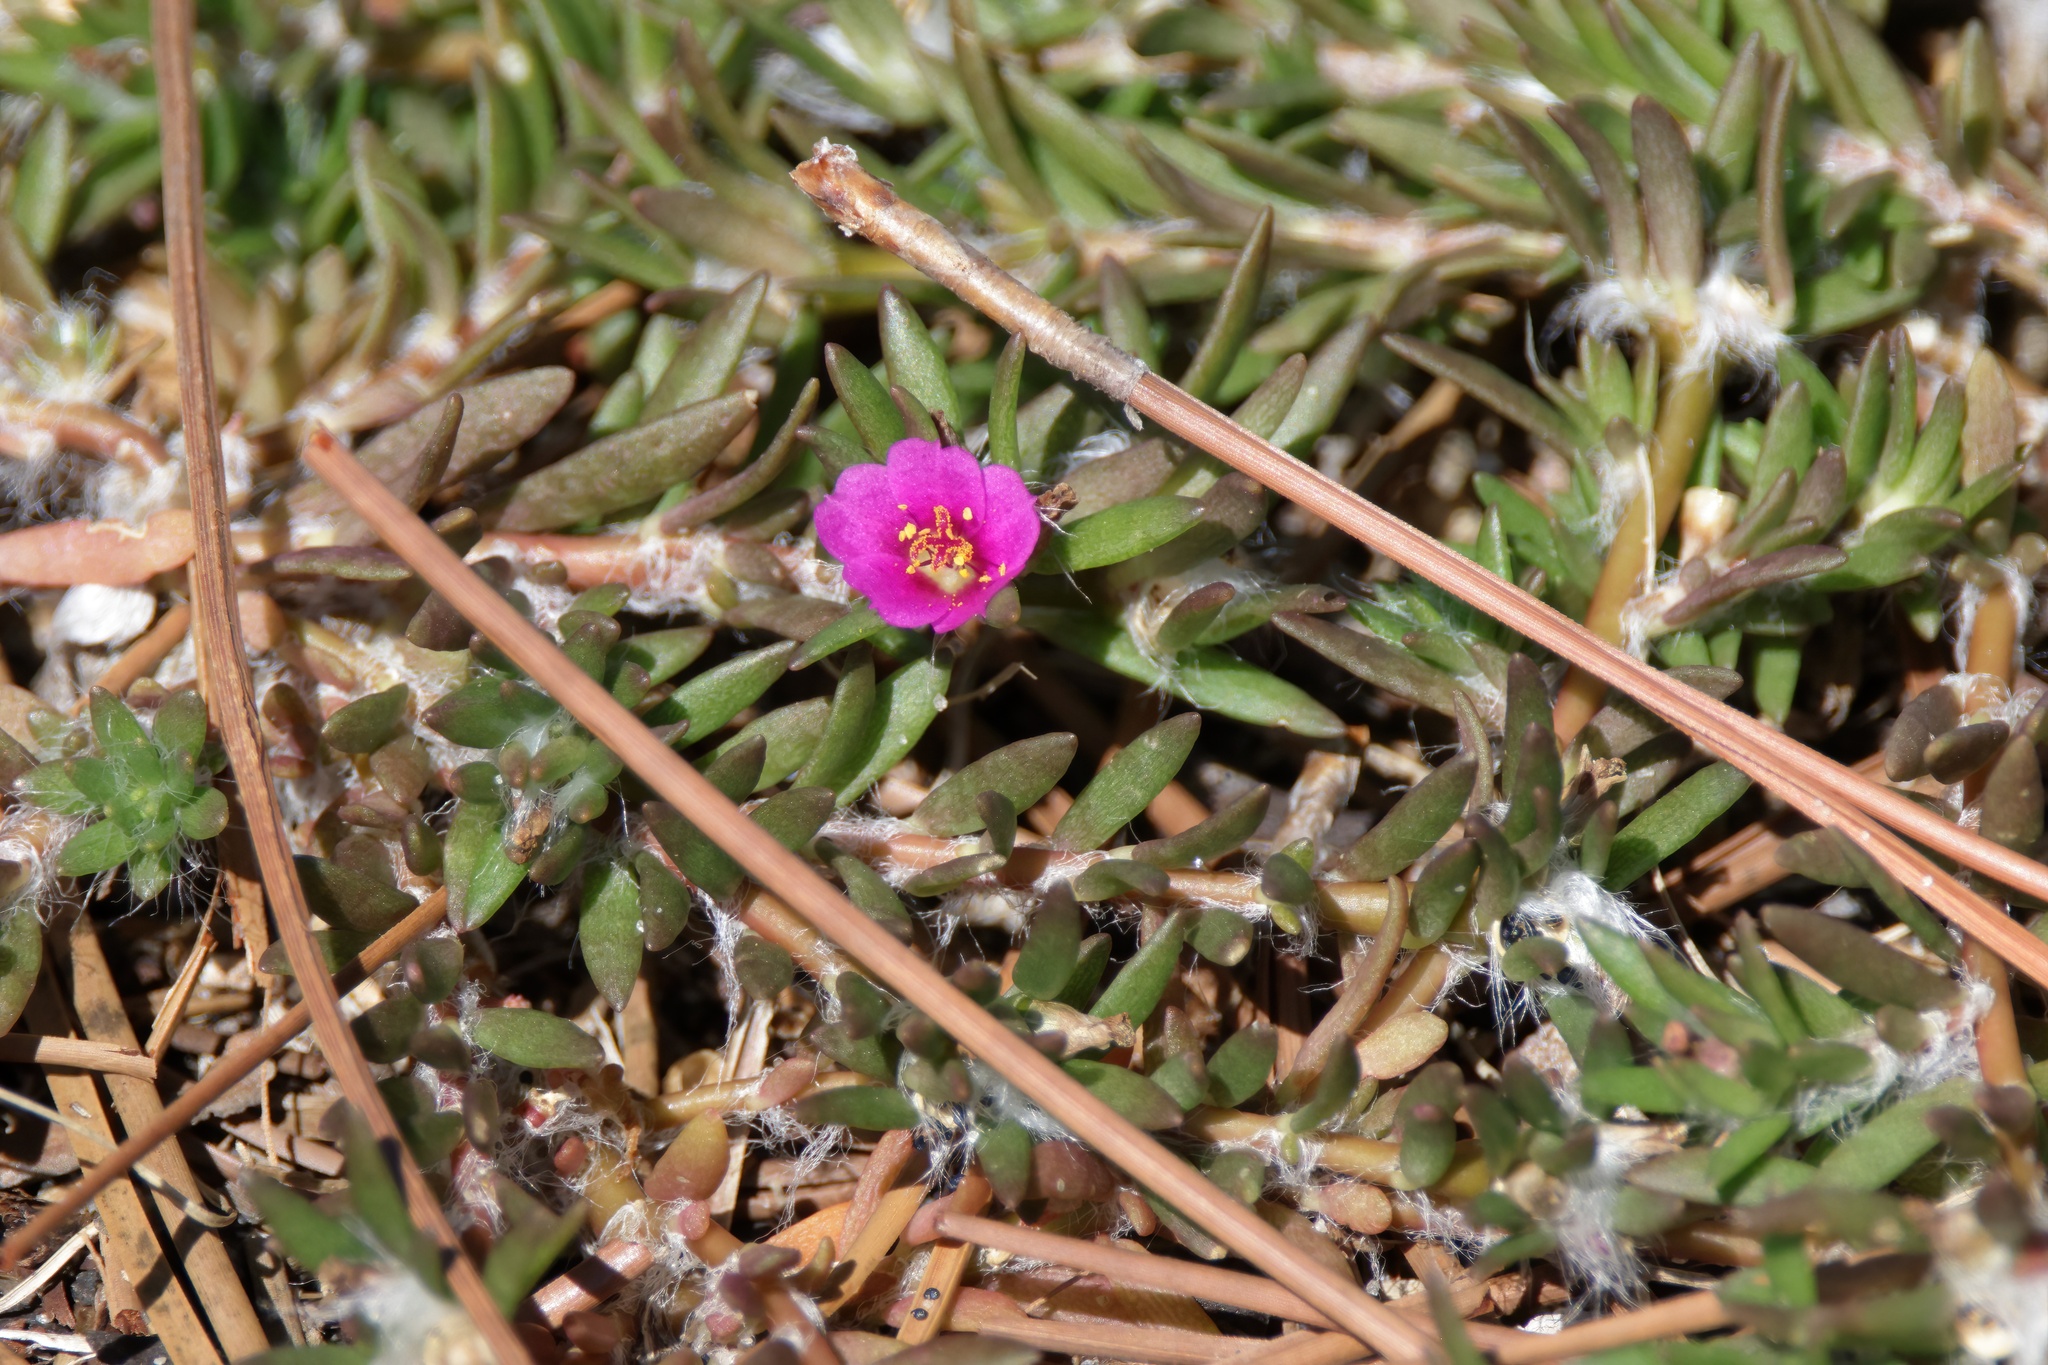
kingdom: Plantae
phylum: Tracheophyta
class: Magnoliopsida
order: Caryophyllales
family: Portulacaceae
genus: Portulaca
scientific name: Portulaca pilosa
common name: Kiss me quick
